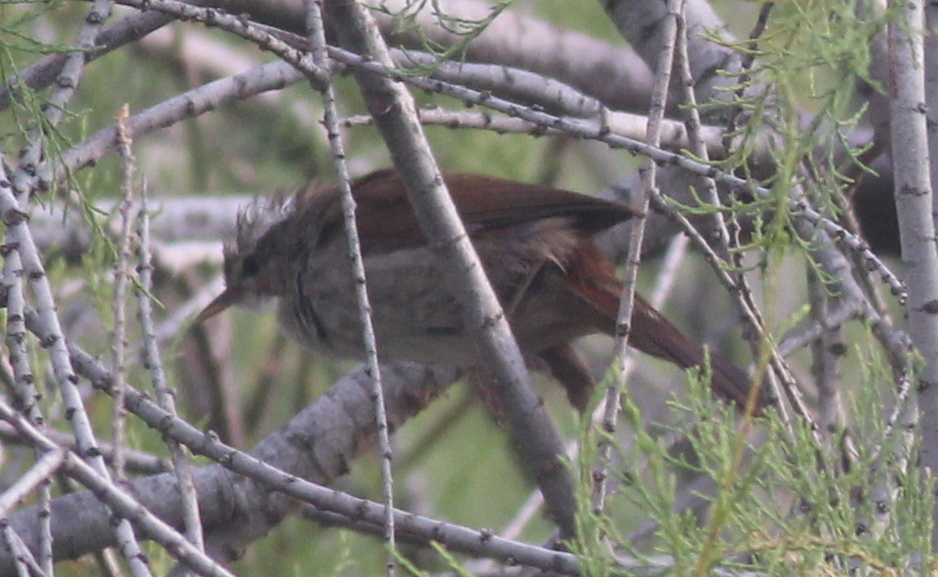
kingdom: Animalia
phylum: Chordata
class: Aves
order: Passeriformes
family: Cettiidae
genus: Cettia
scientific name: Cettia cetti
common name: Cetti's warbler
